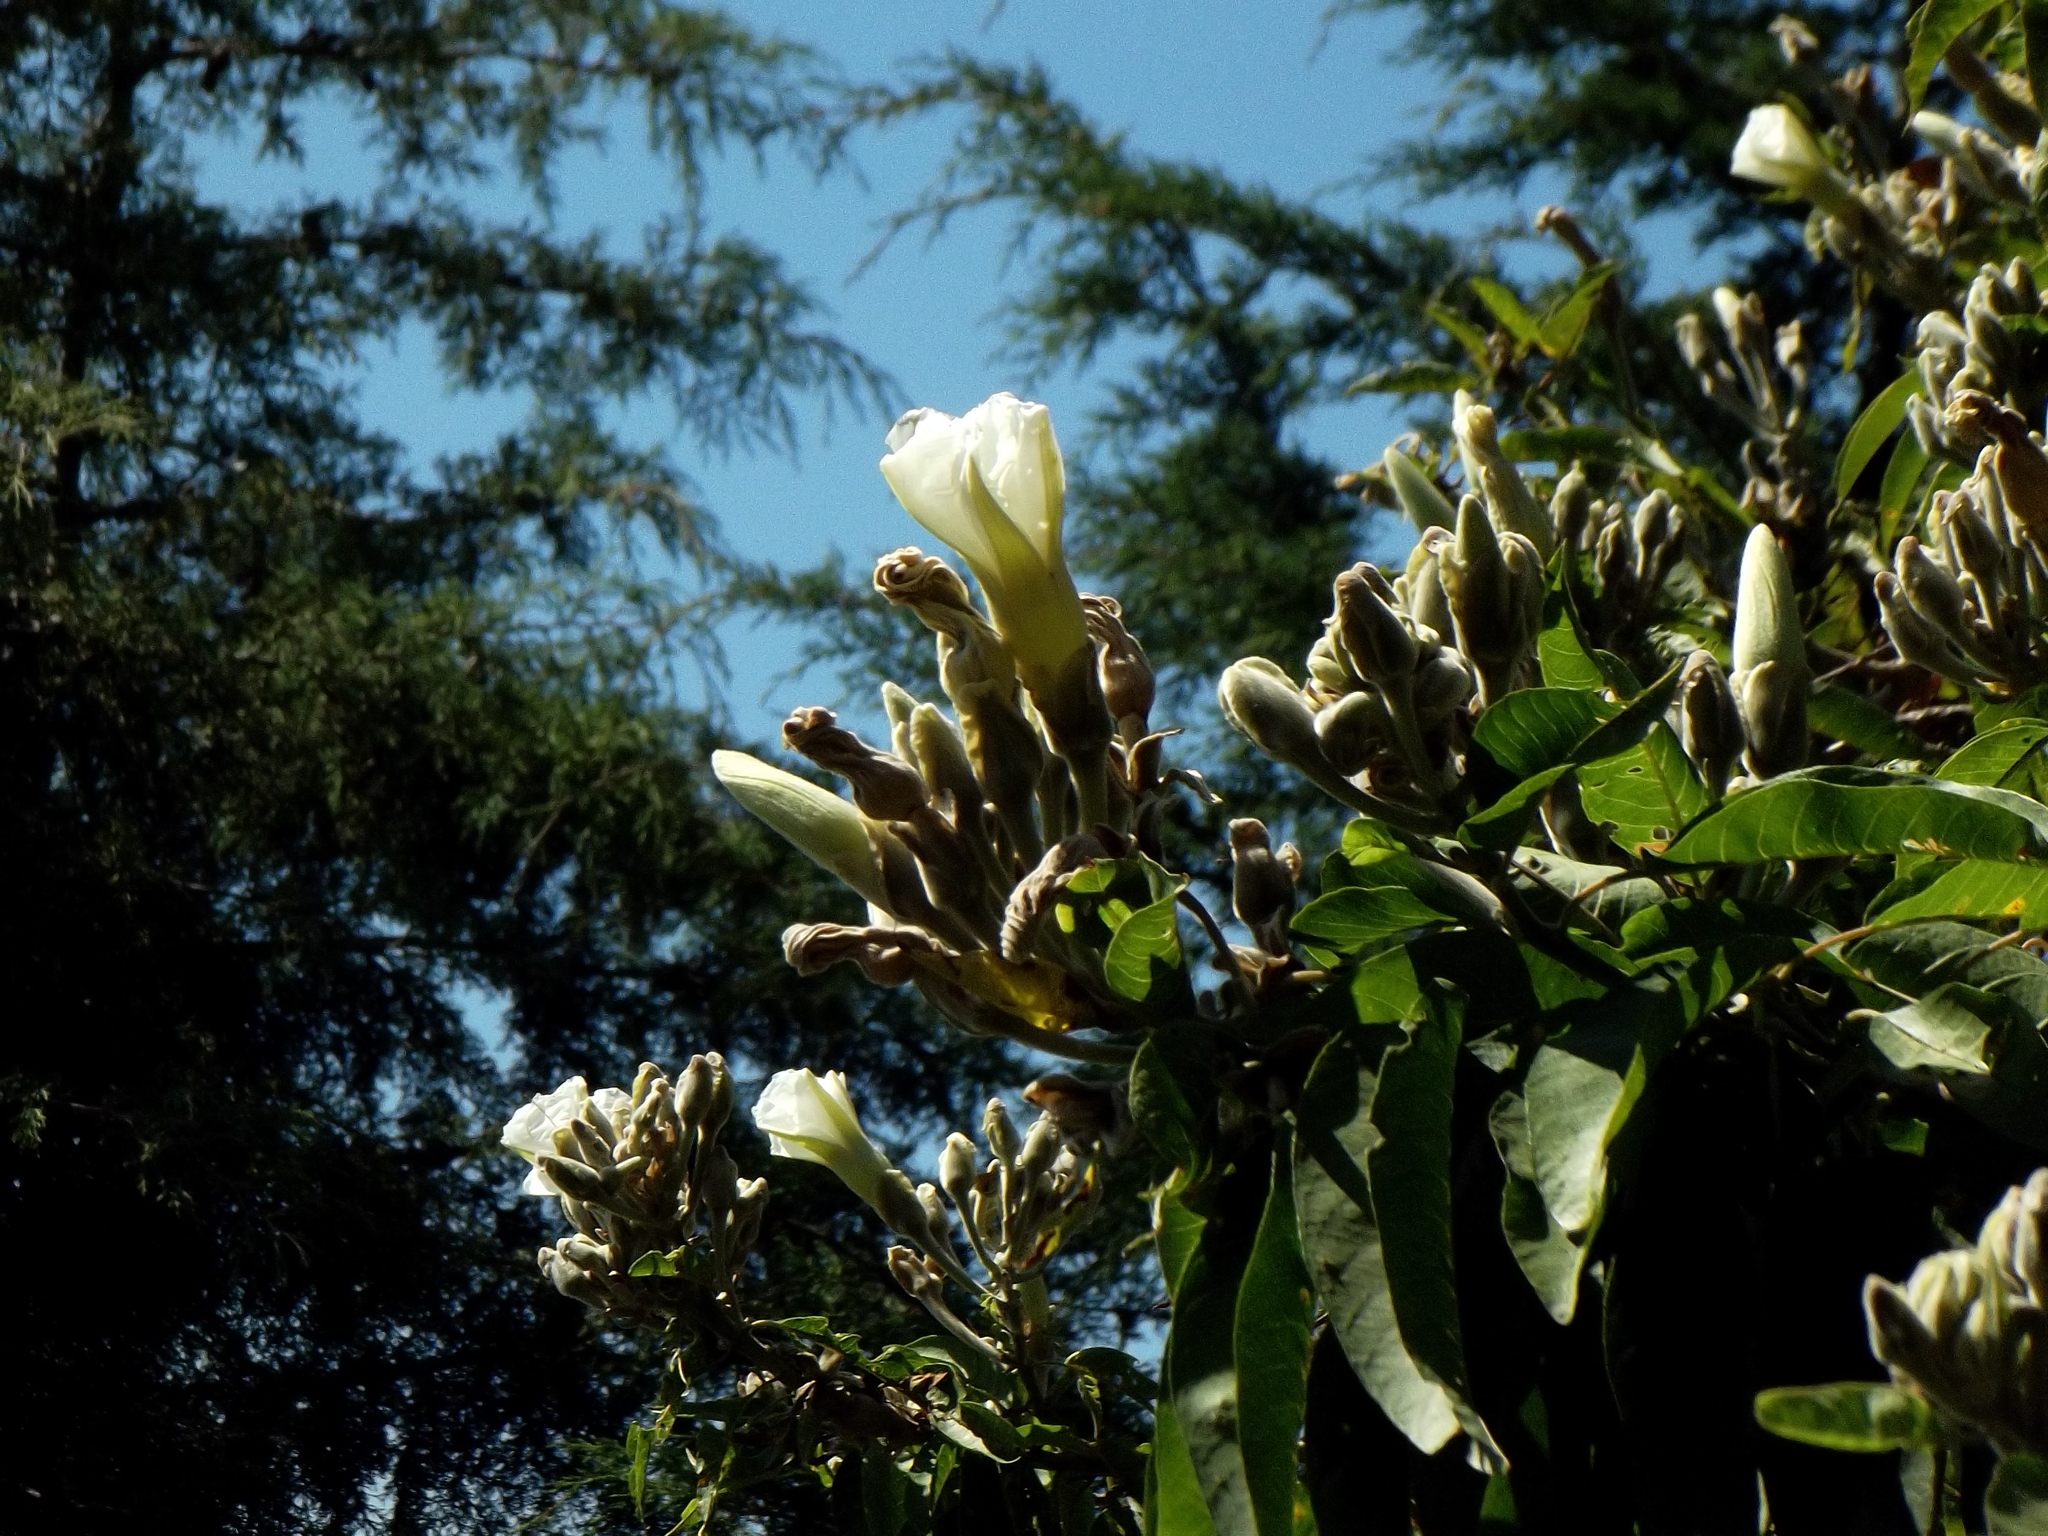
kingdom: Plantae
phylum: Tracheophyta
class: Magnoliopsida
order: Solanales
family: Convolvulaceae
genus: Ipomoea
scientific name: Ipomoea murucoides
